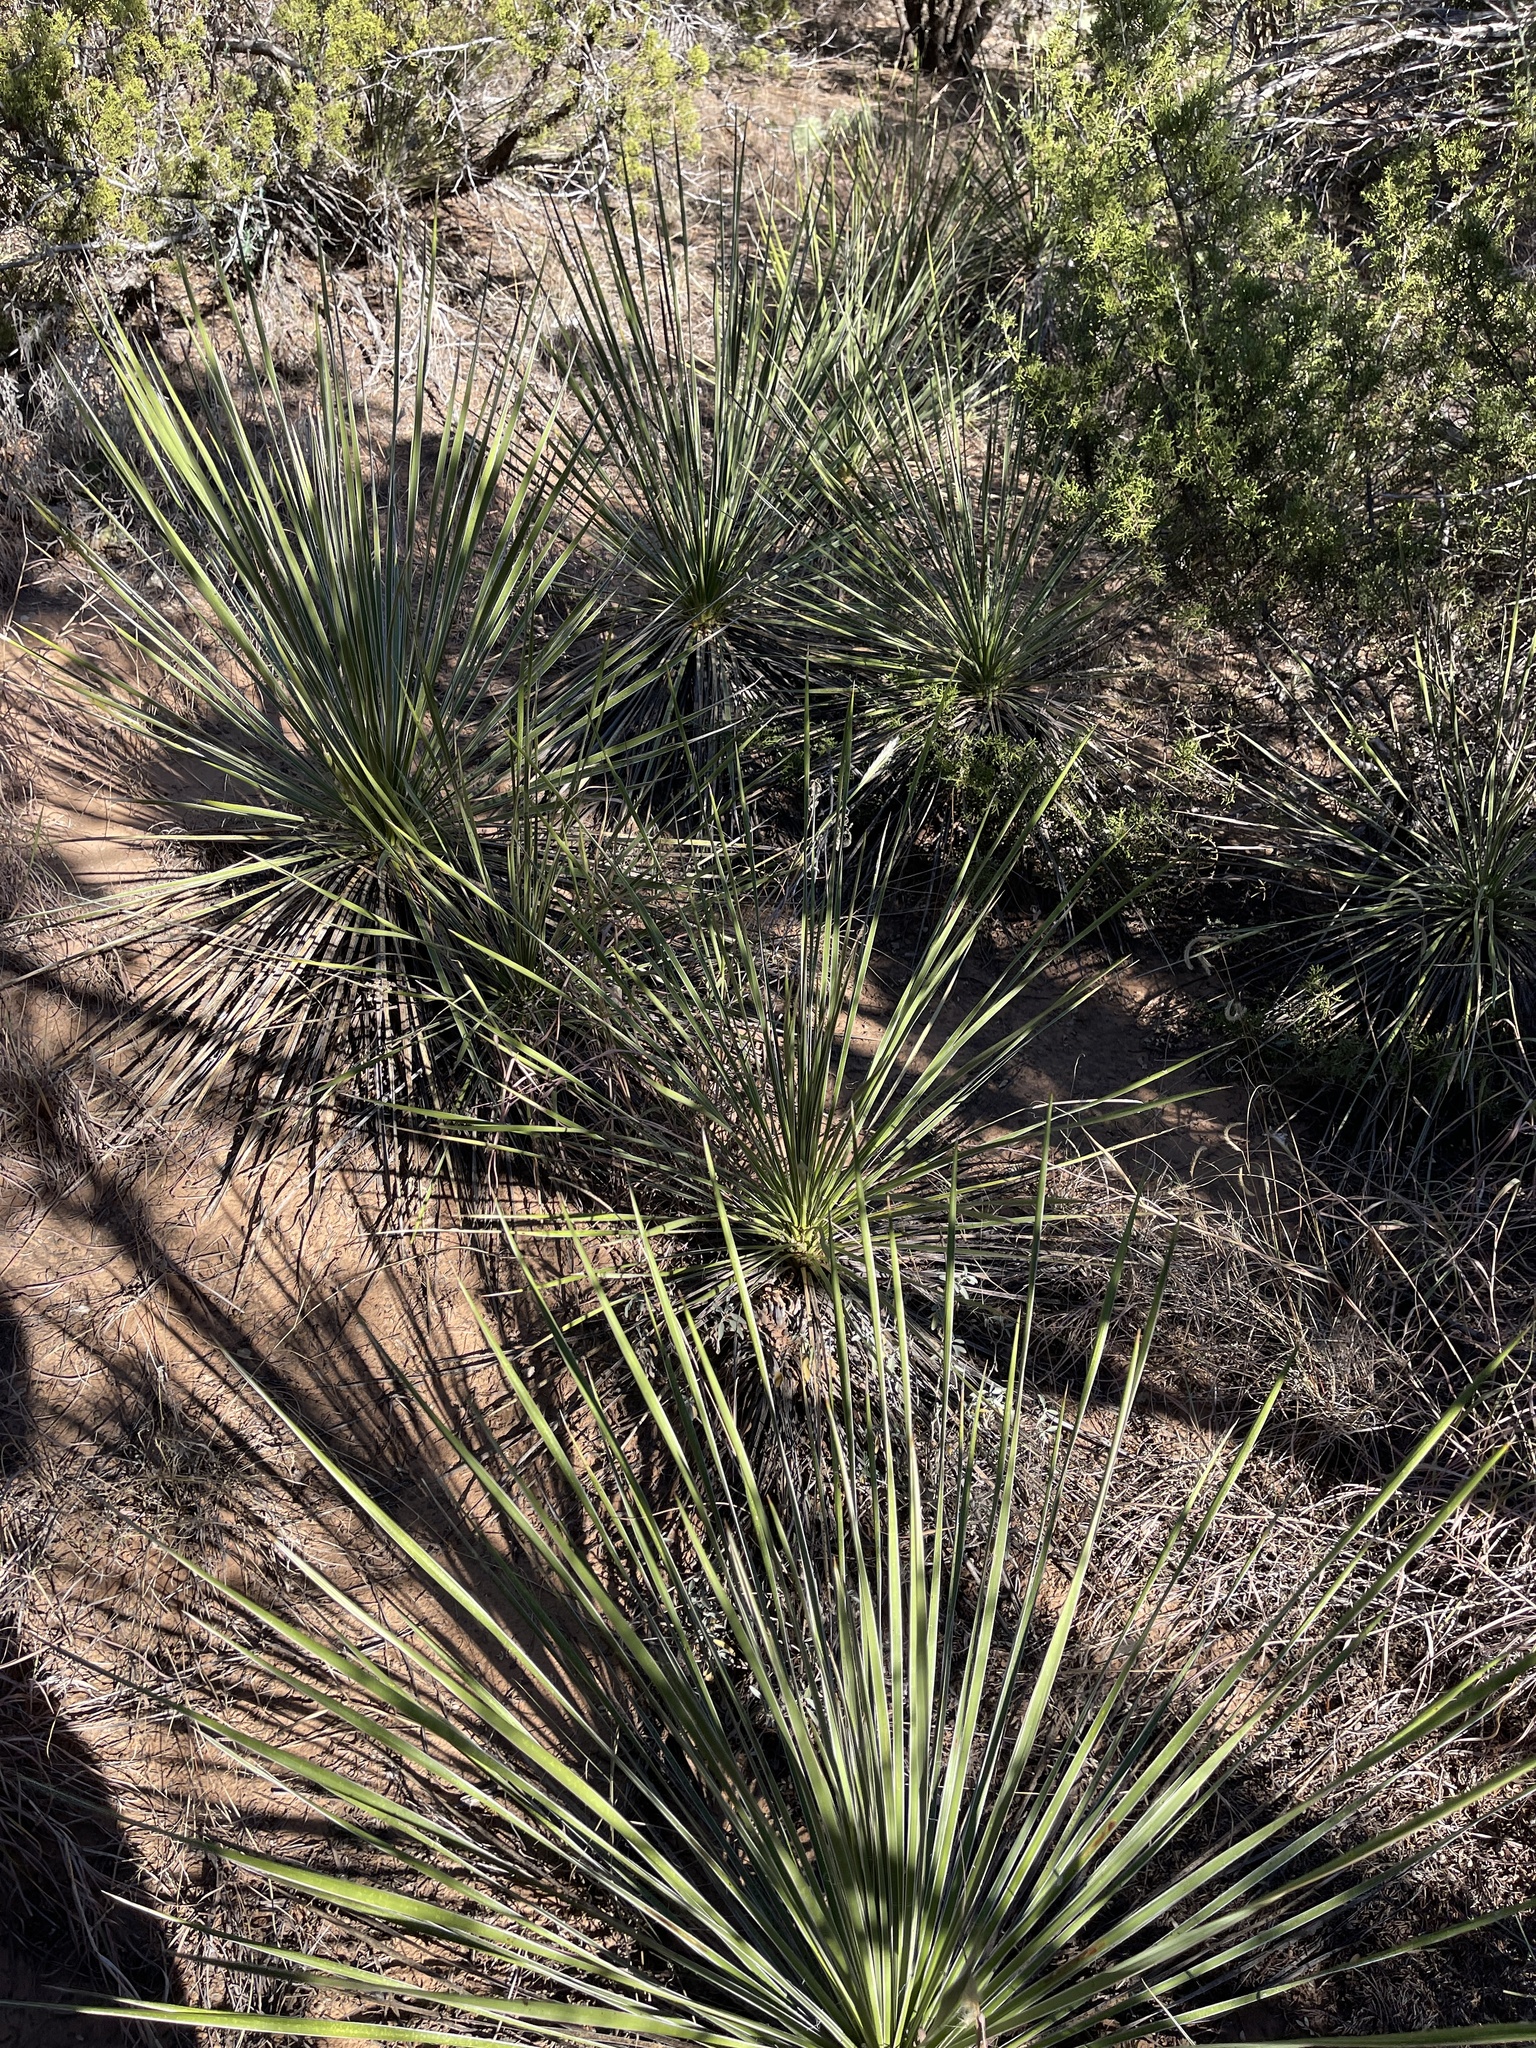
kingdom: Plantae
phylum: Tracheophyta
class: Liliopsida
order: Asparagales
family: Asparagaceae
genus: Yucca
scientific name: Yucca campestris
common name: Plains yucca
